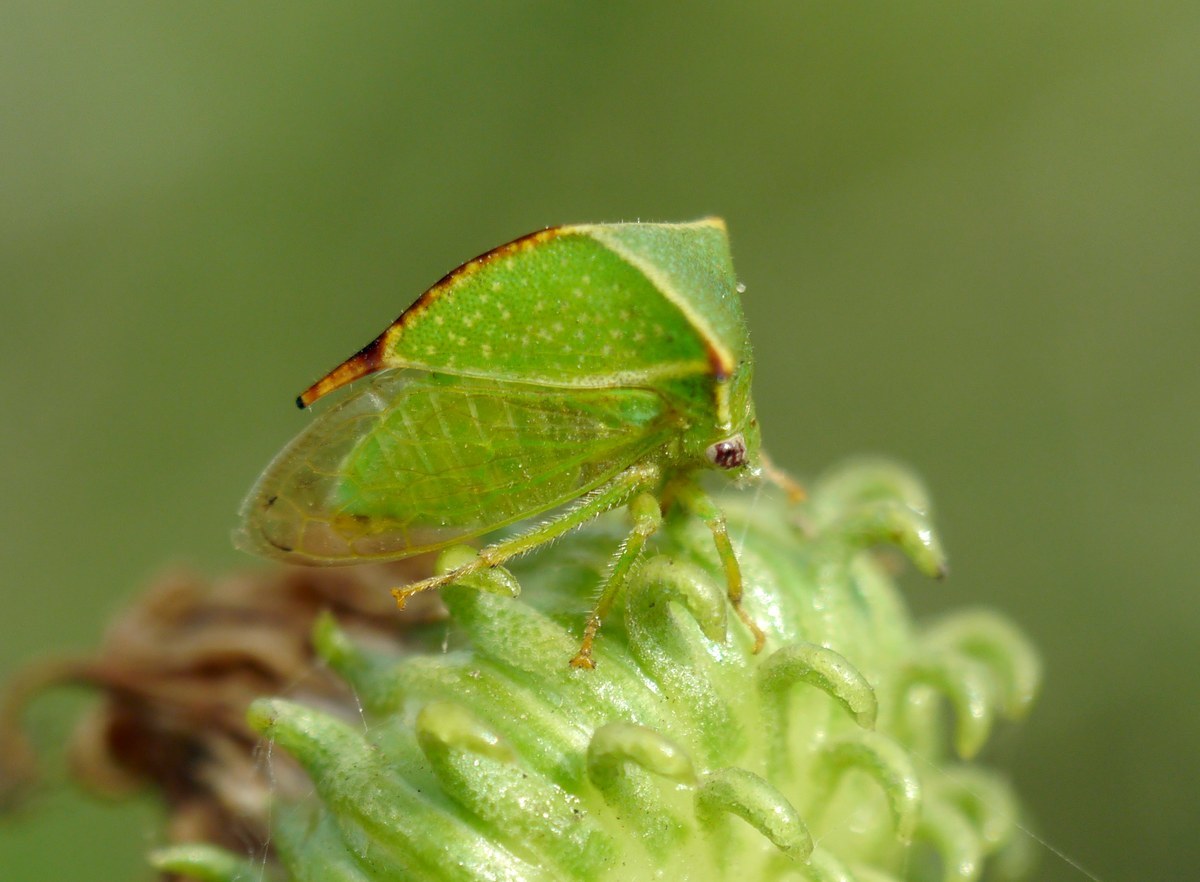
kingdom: Animalia
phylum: Arthropoda
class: Insecta
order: Hemiptera
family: Membracidae
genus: Stictocephala
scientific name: Stictocephala bisonia
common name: American buffalo treehopper
